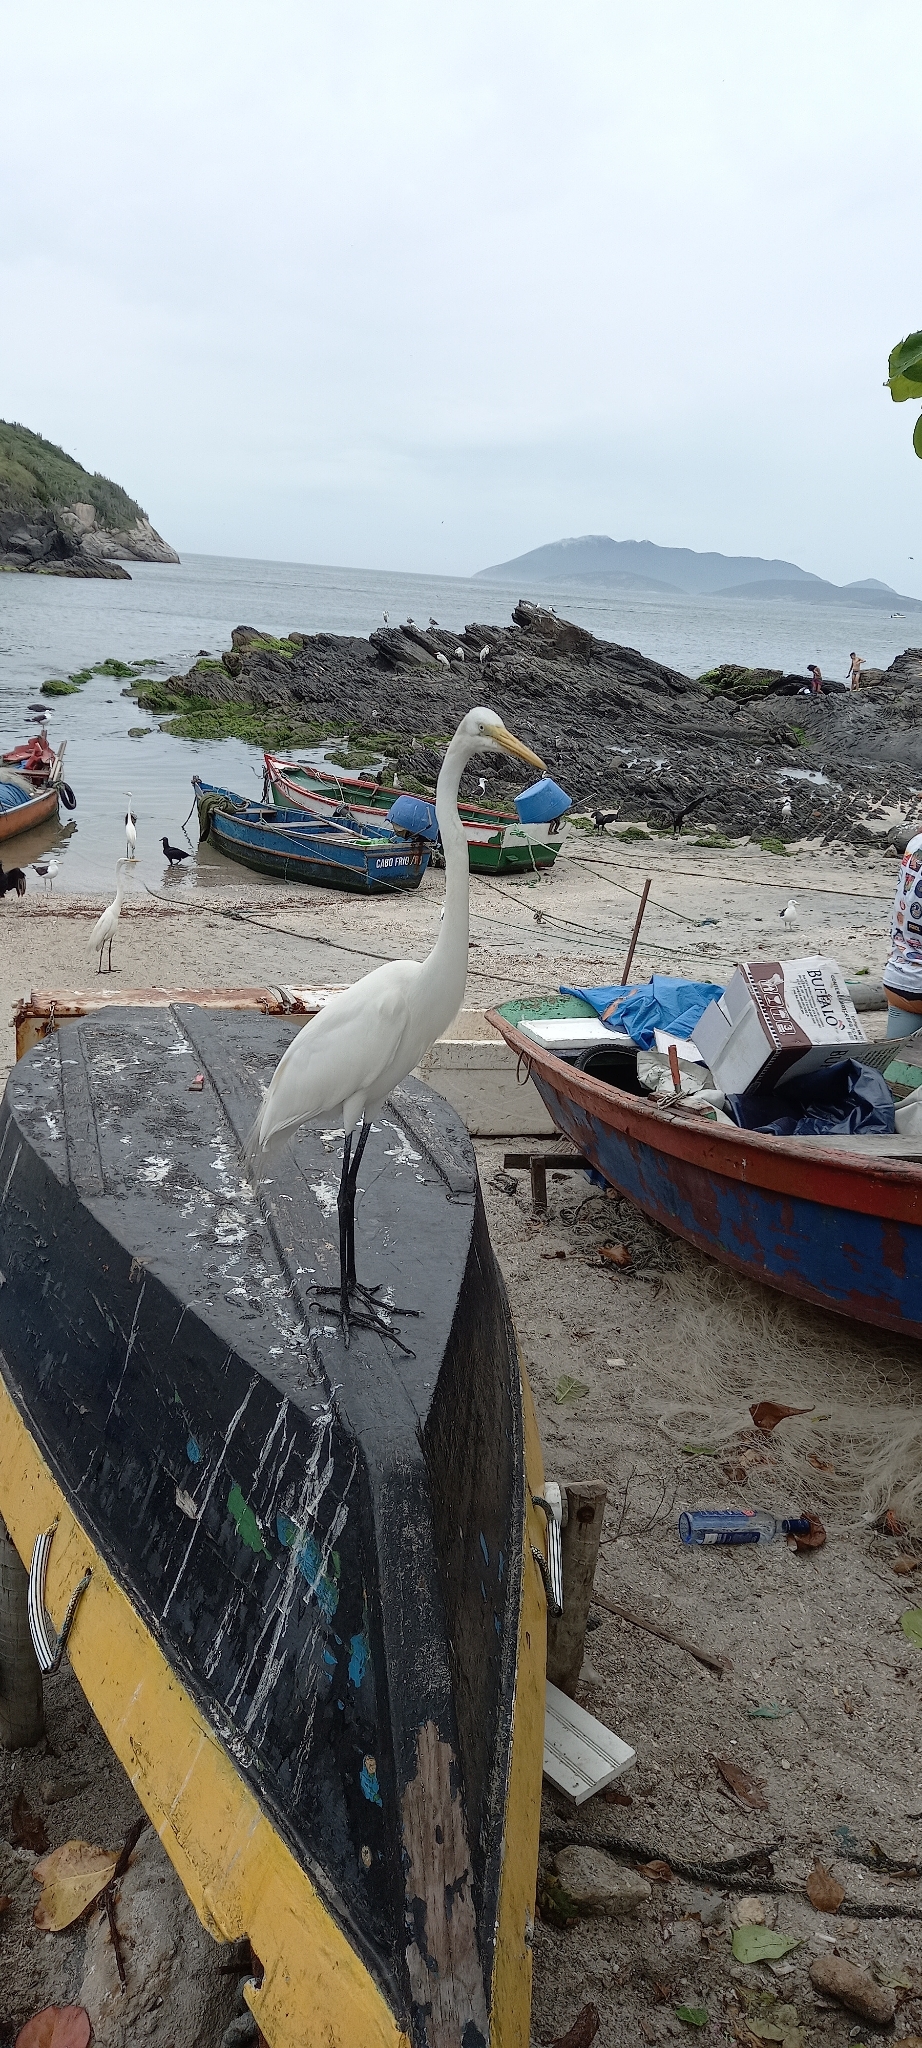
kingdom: Animalia
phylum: Chordata
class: Aves
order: Pelecaniformes
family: Ardeidae
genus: Ardea
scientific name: Ardea alba
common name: Great egret
